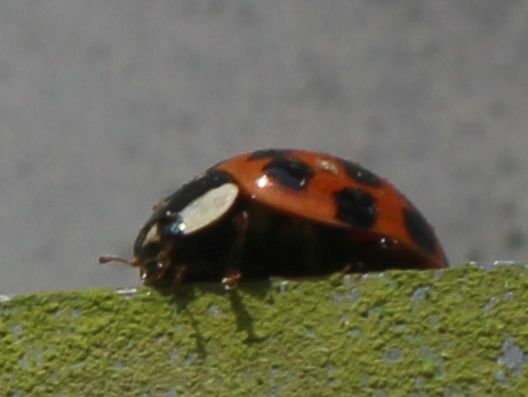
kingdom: Animalia
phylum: Arthropoda
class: Insecta
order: Coleoptera
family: Coccinellidae
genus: Harmonia
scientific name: Harmonia axyridis
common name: Harlequin ladybird
